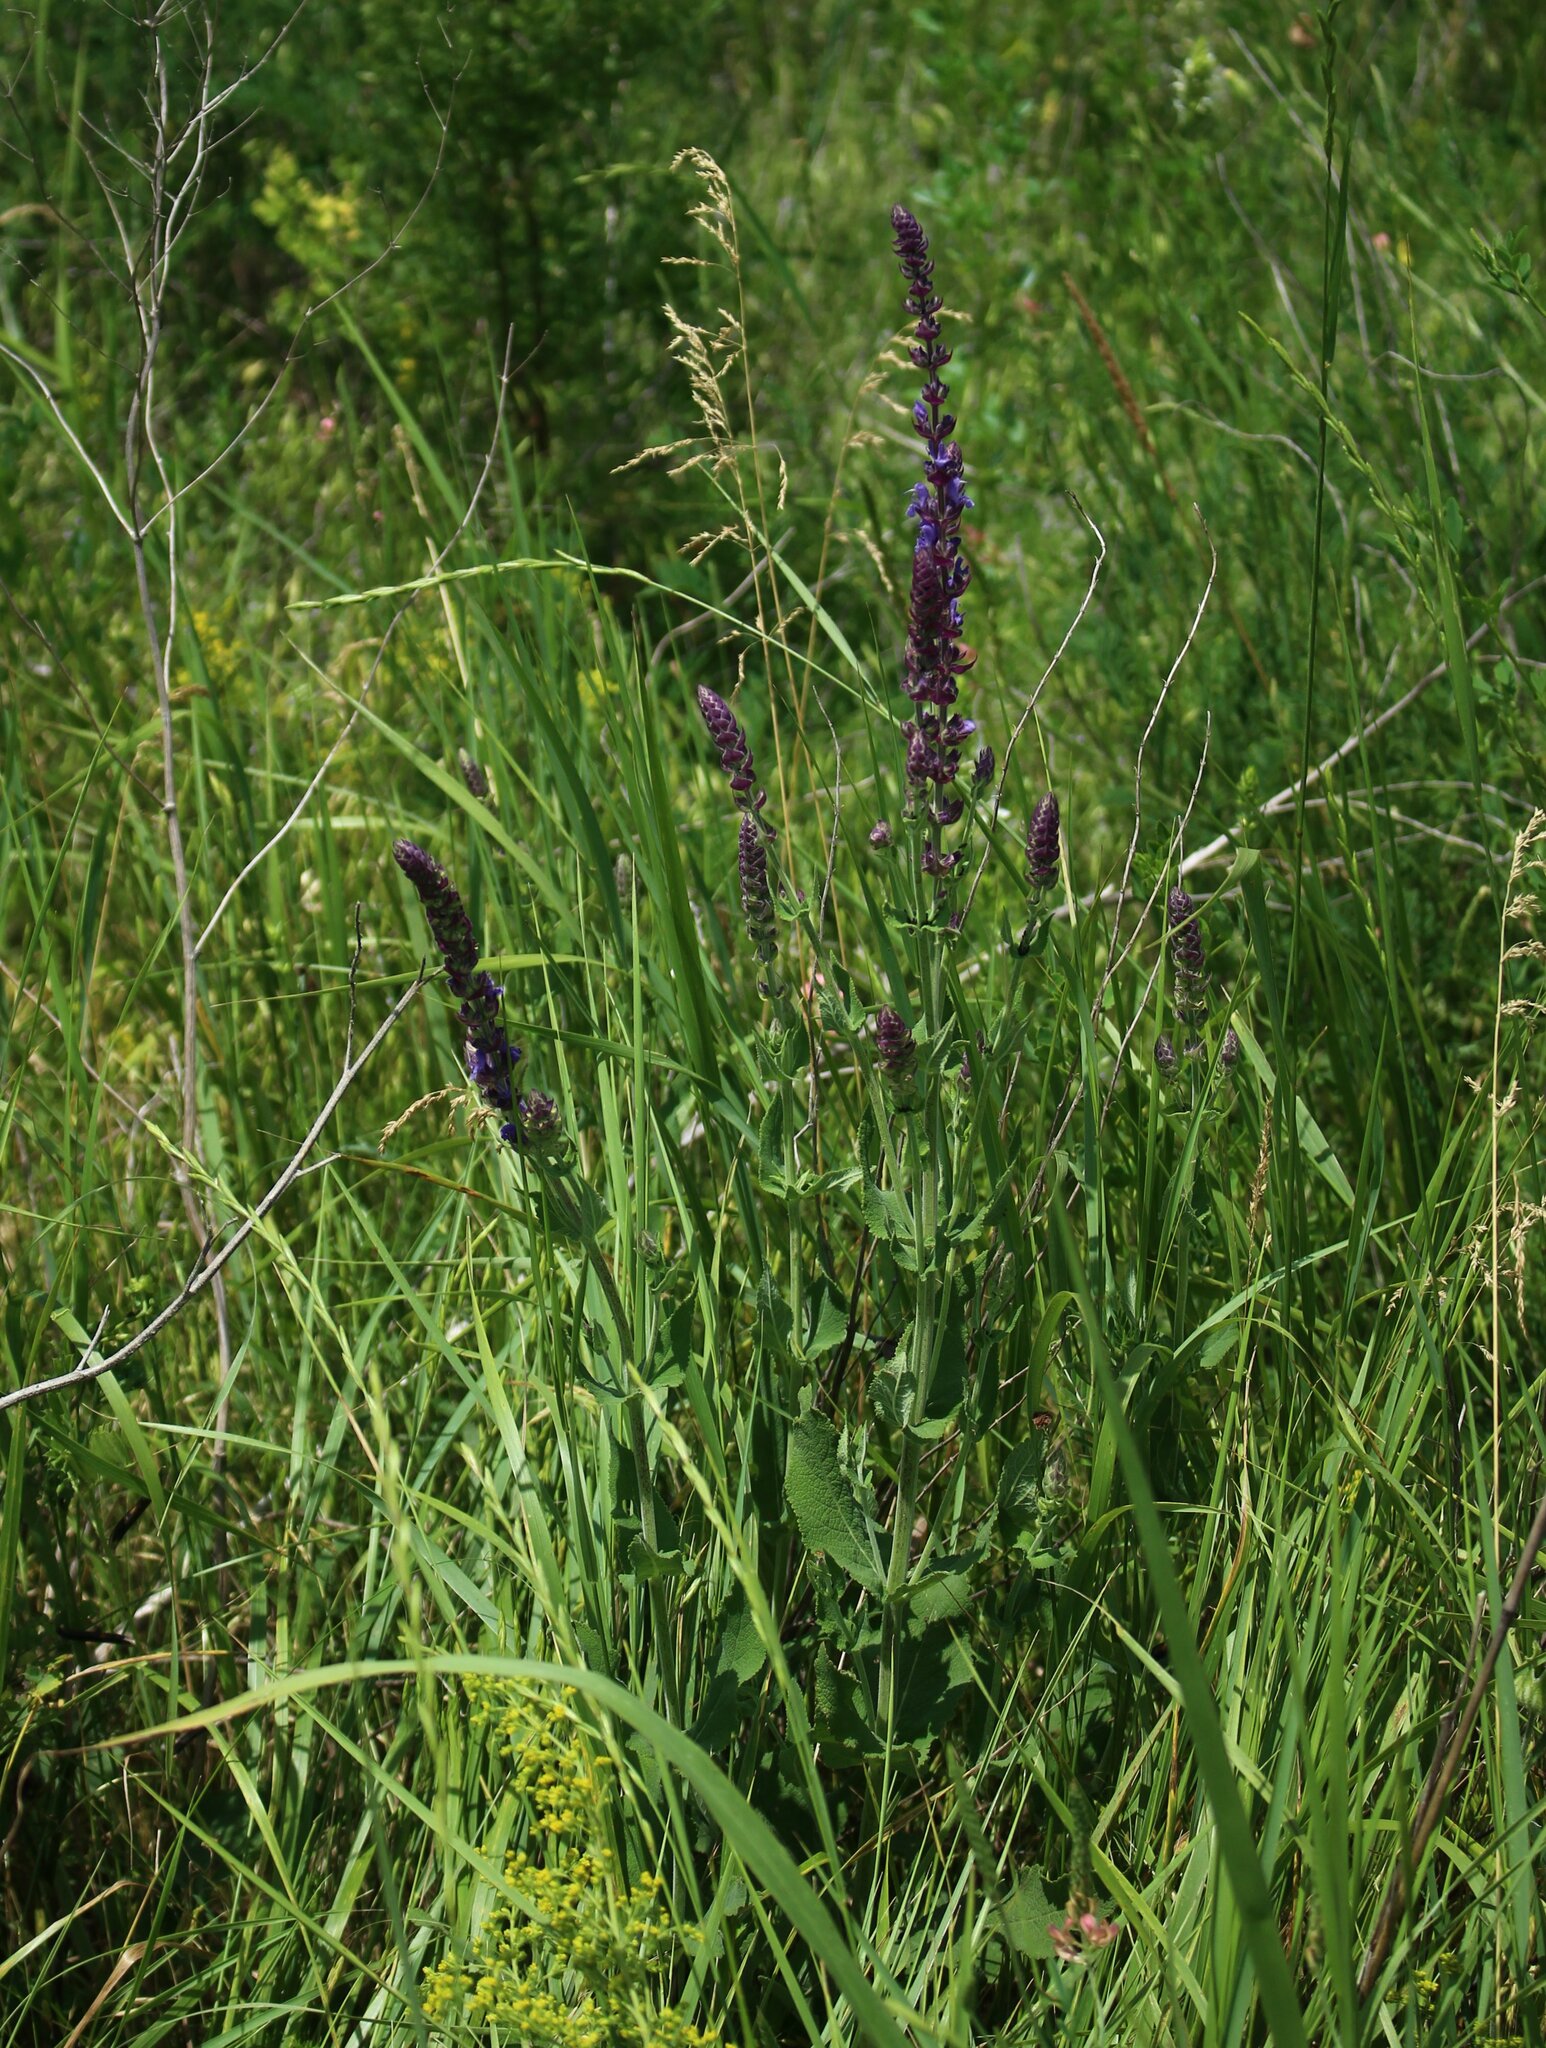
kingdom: Plantae
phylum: Tracheophyta
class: Magnoliopsida
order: Lamiales
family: Lamiaceae
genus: Salvia
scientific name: Salvia nemorosa
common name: Balkan clary
